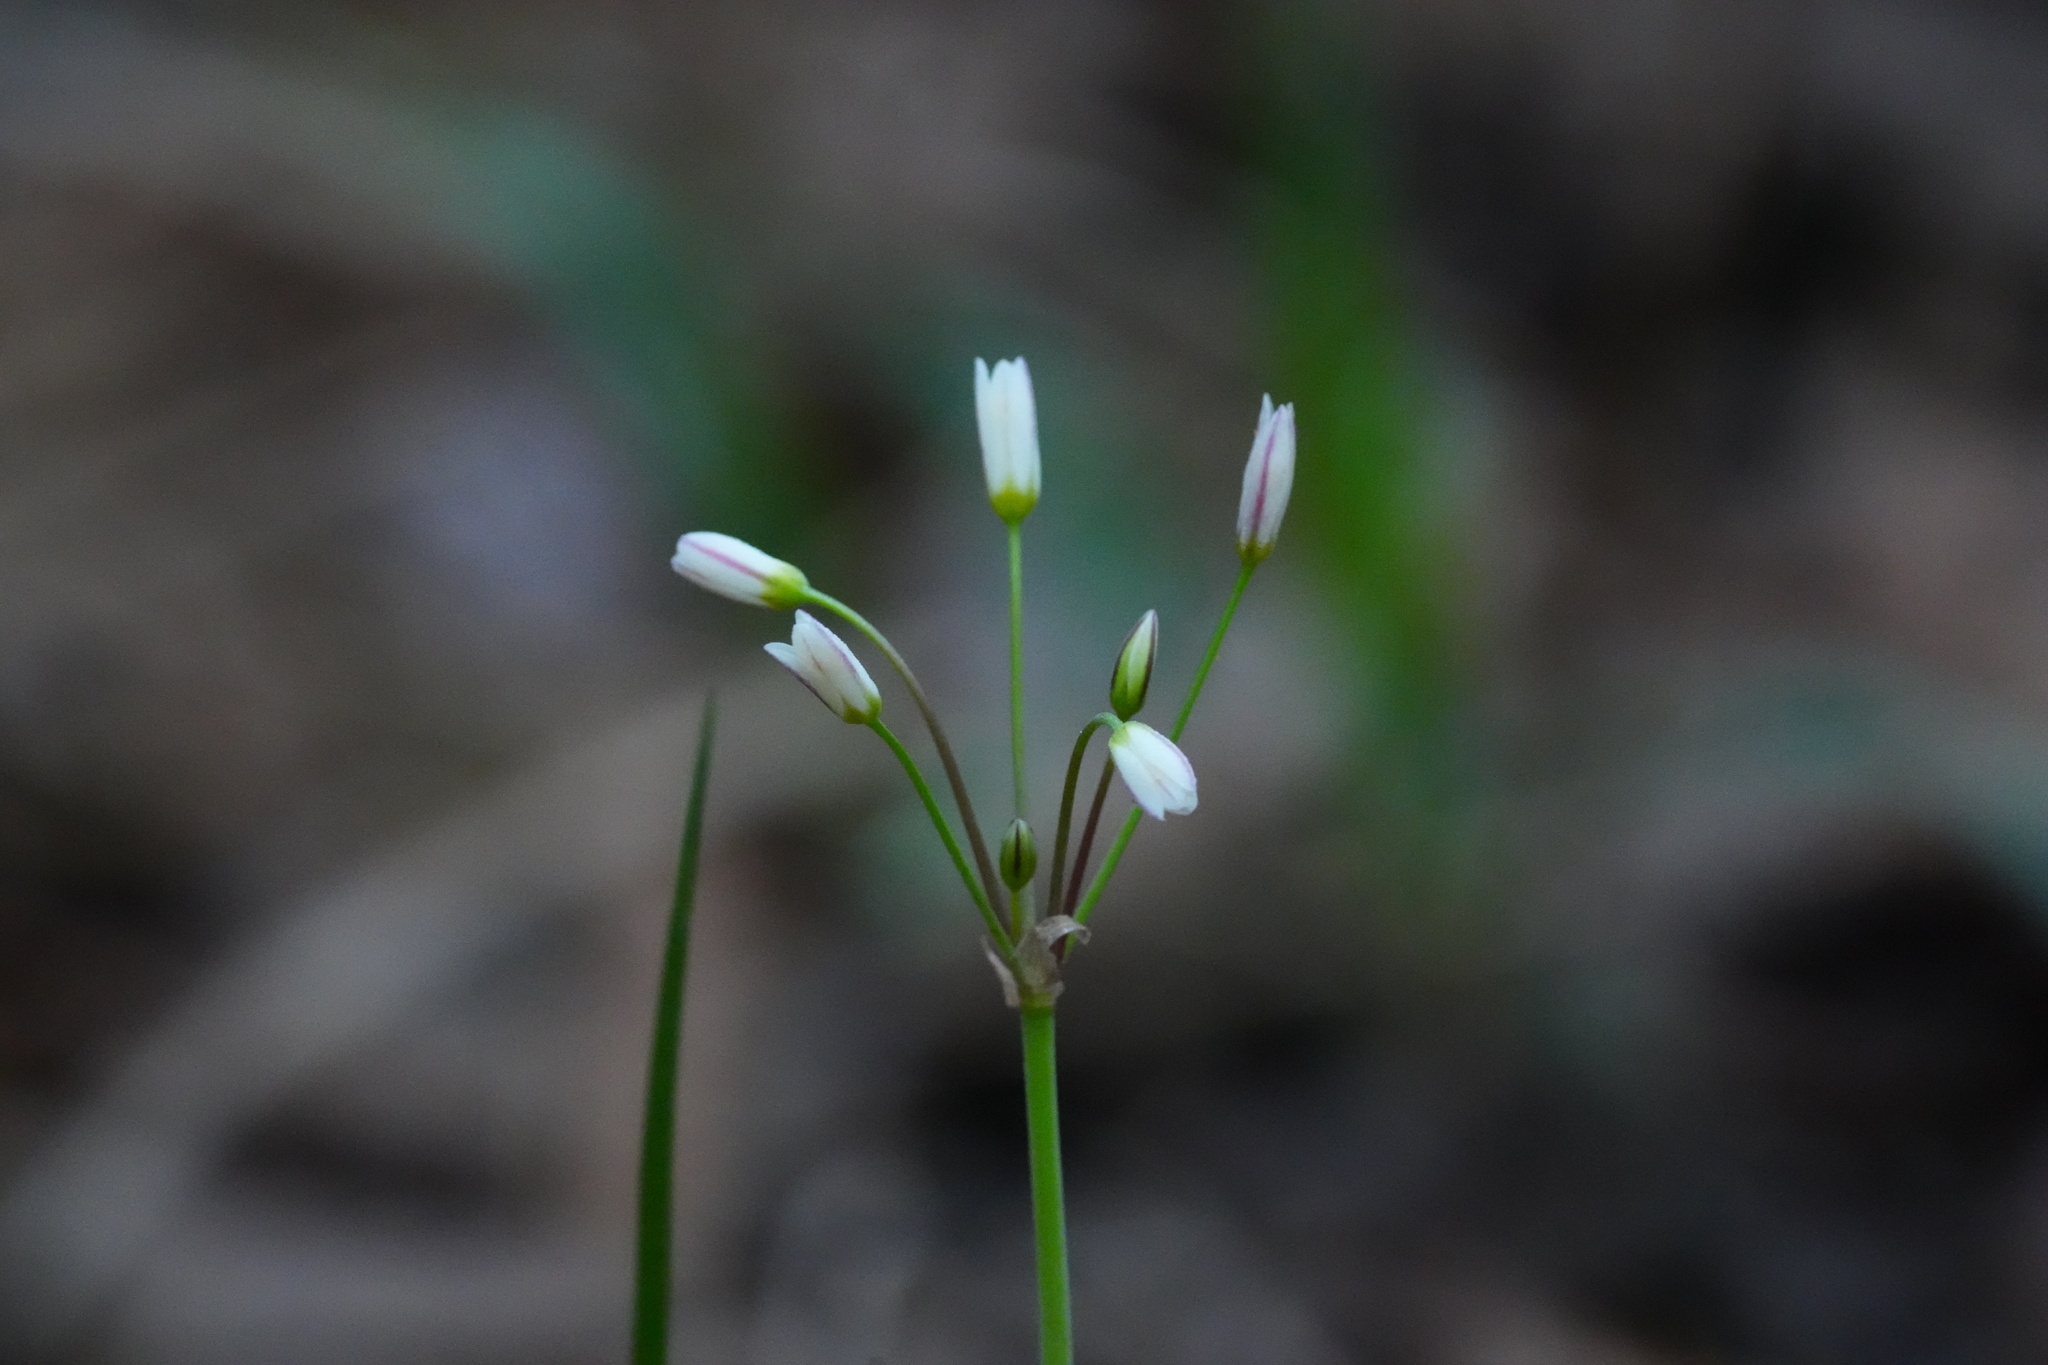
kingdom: Plantae
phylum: Tracheophyta
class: Liliopsida
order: Asparagales
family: Amaryllidaceae
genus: Nothoscordum
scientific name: Nothoscordum bivalve
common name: Crow-poison
